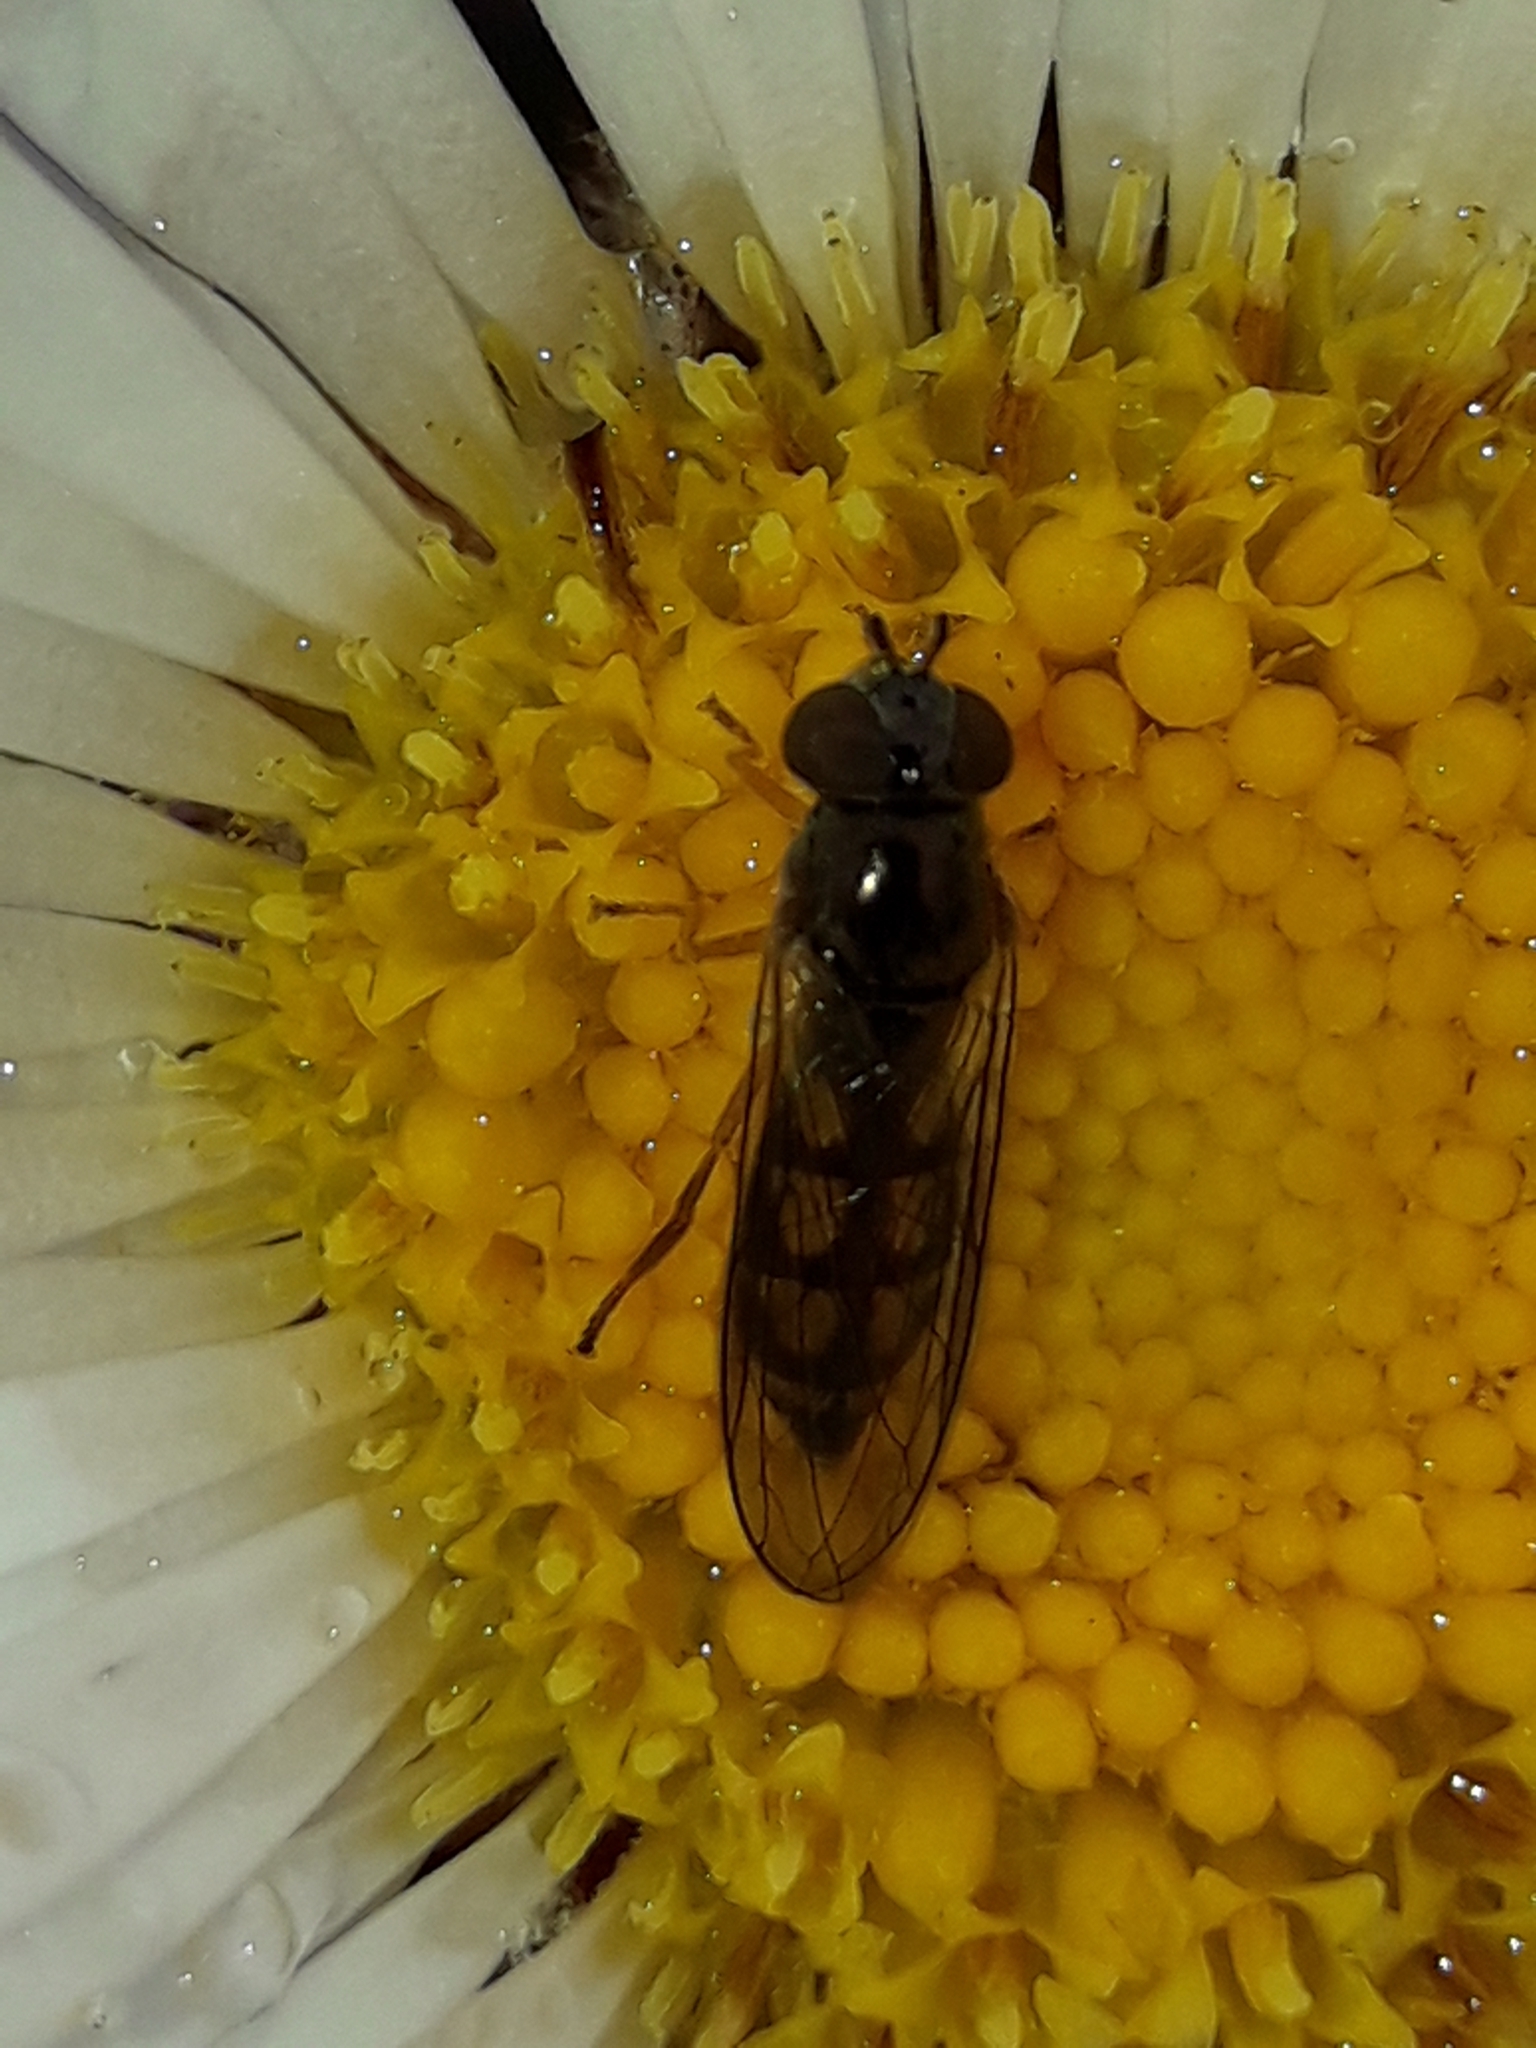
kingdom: Animalia
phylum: Arthropoda
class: Insecta
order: Diptera
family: Syrphidae
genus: Melanostoma
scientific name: Melanostoma fasciatum
